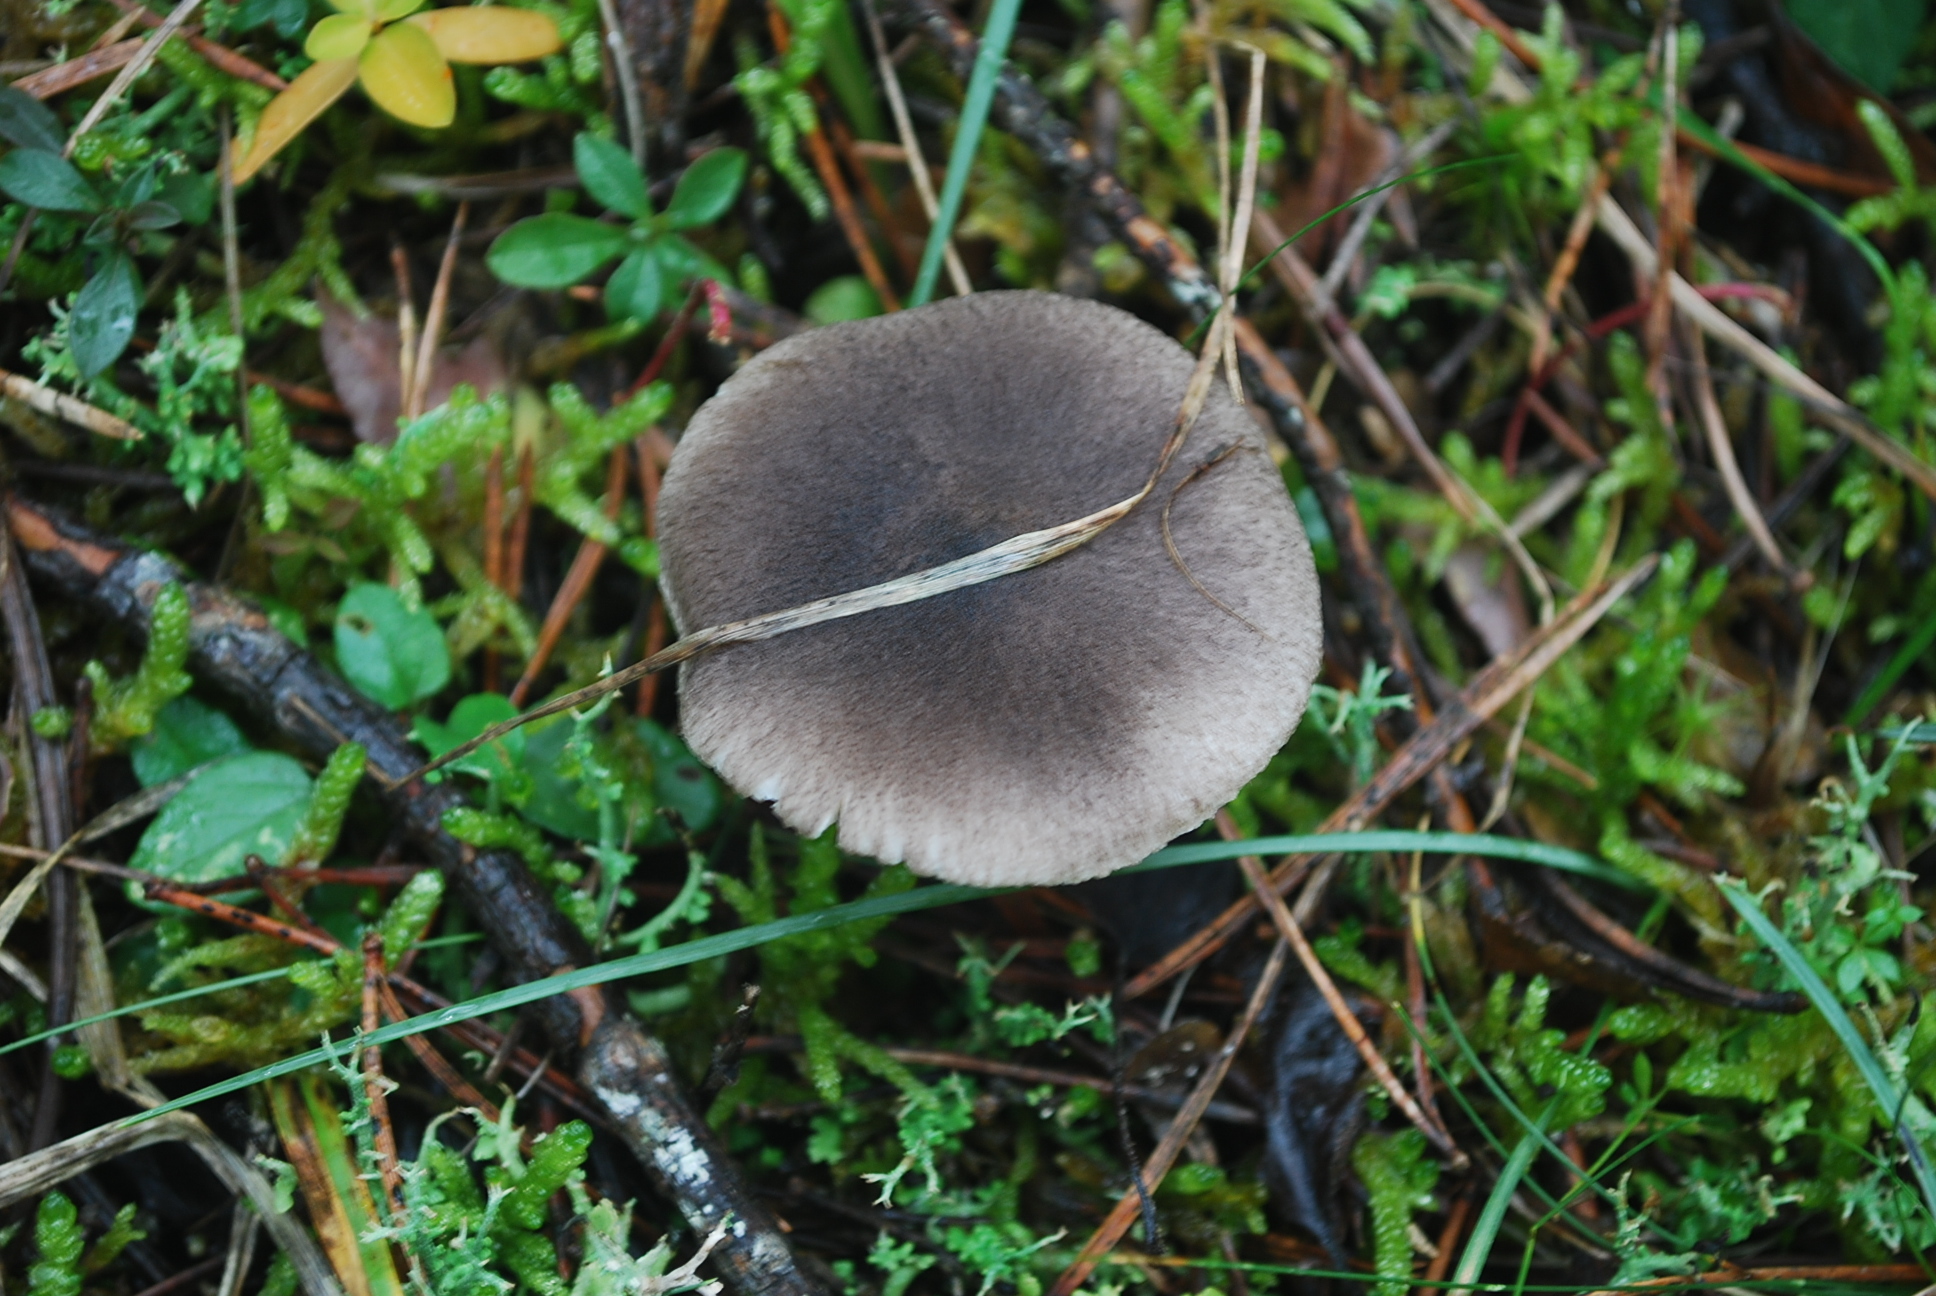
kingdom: Fungi
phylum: Basidiomycota
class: Agaricomycetes
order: Agaricales
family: Tricholomataceae
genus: Tricholoma
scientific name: Tricholoma terreum
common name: Grey knight
